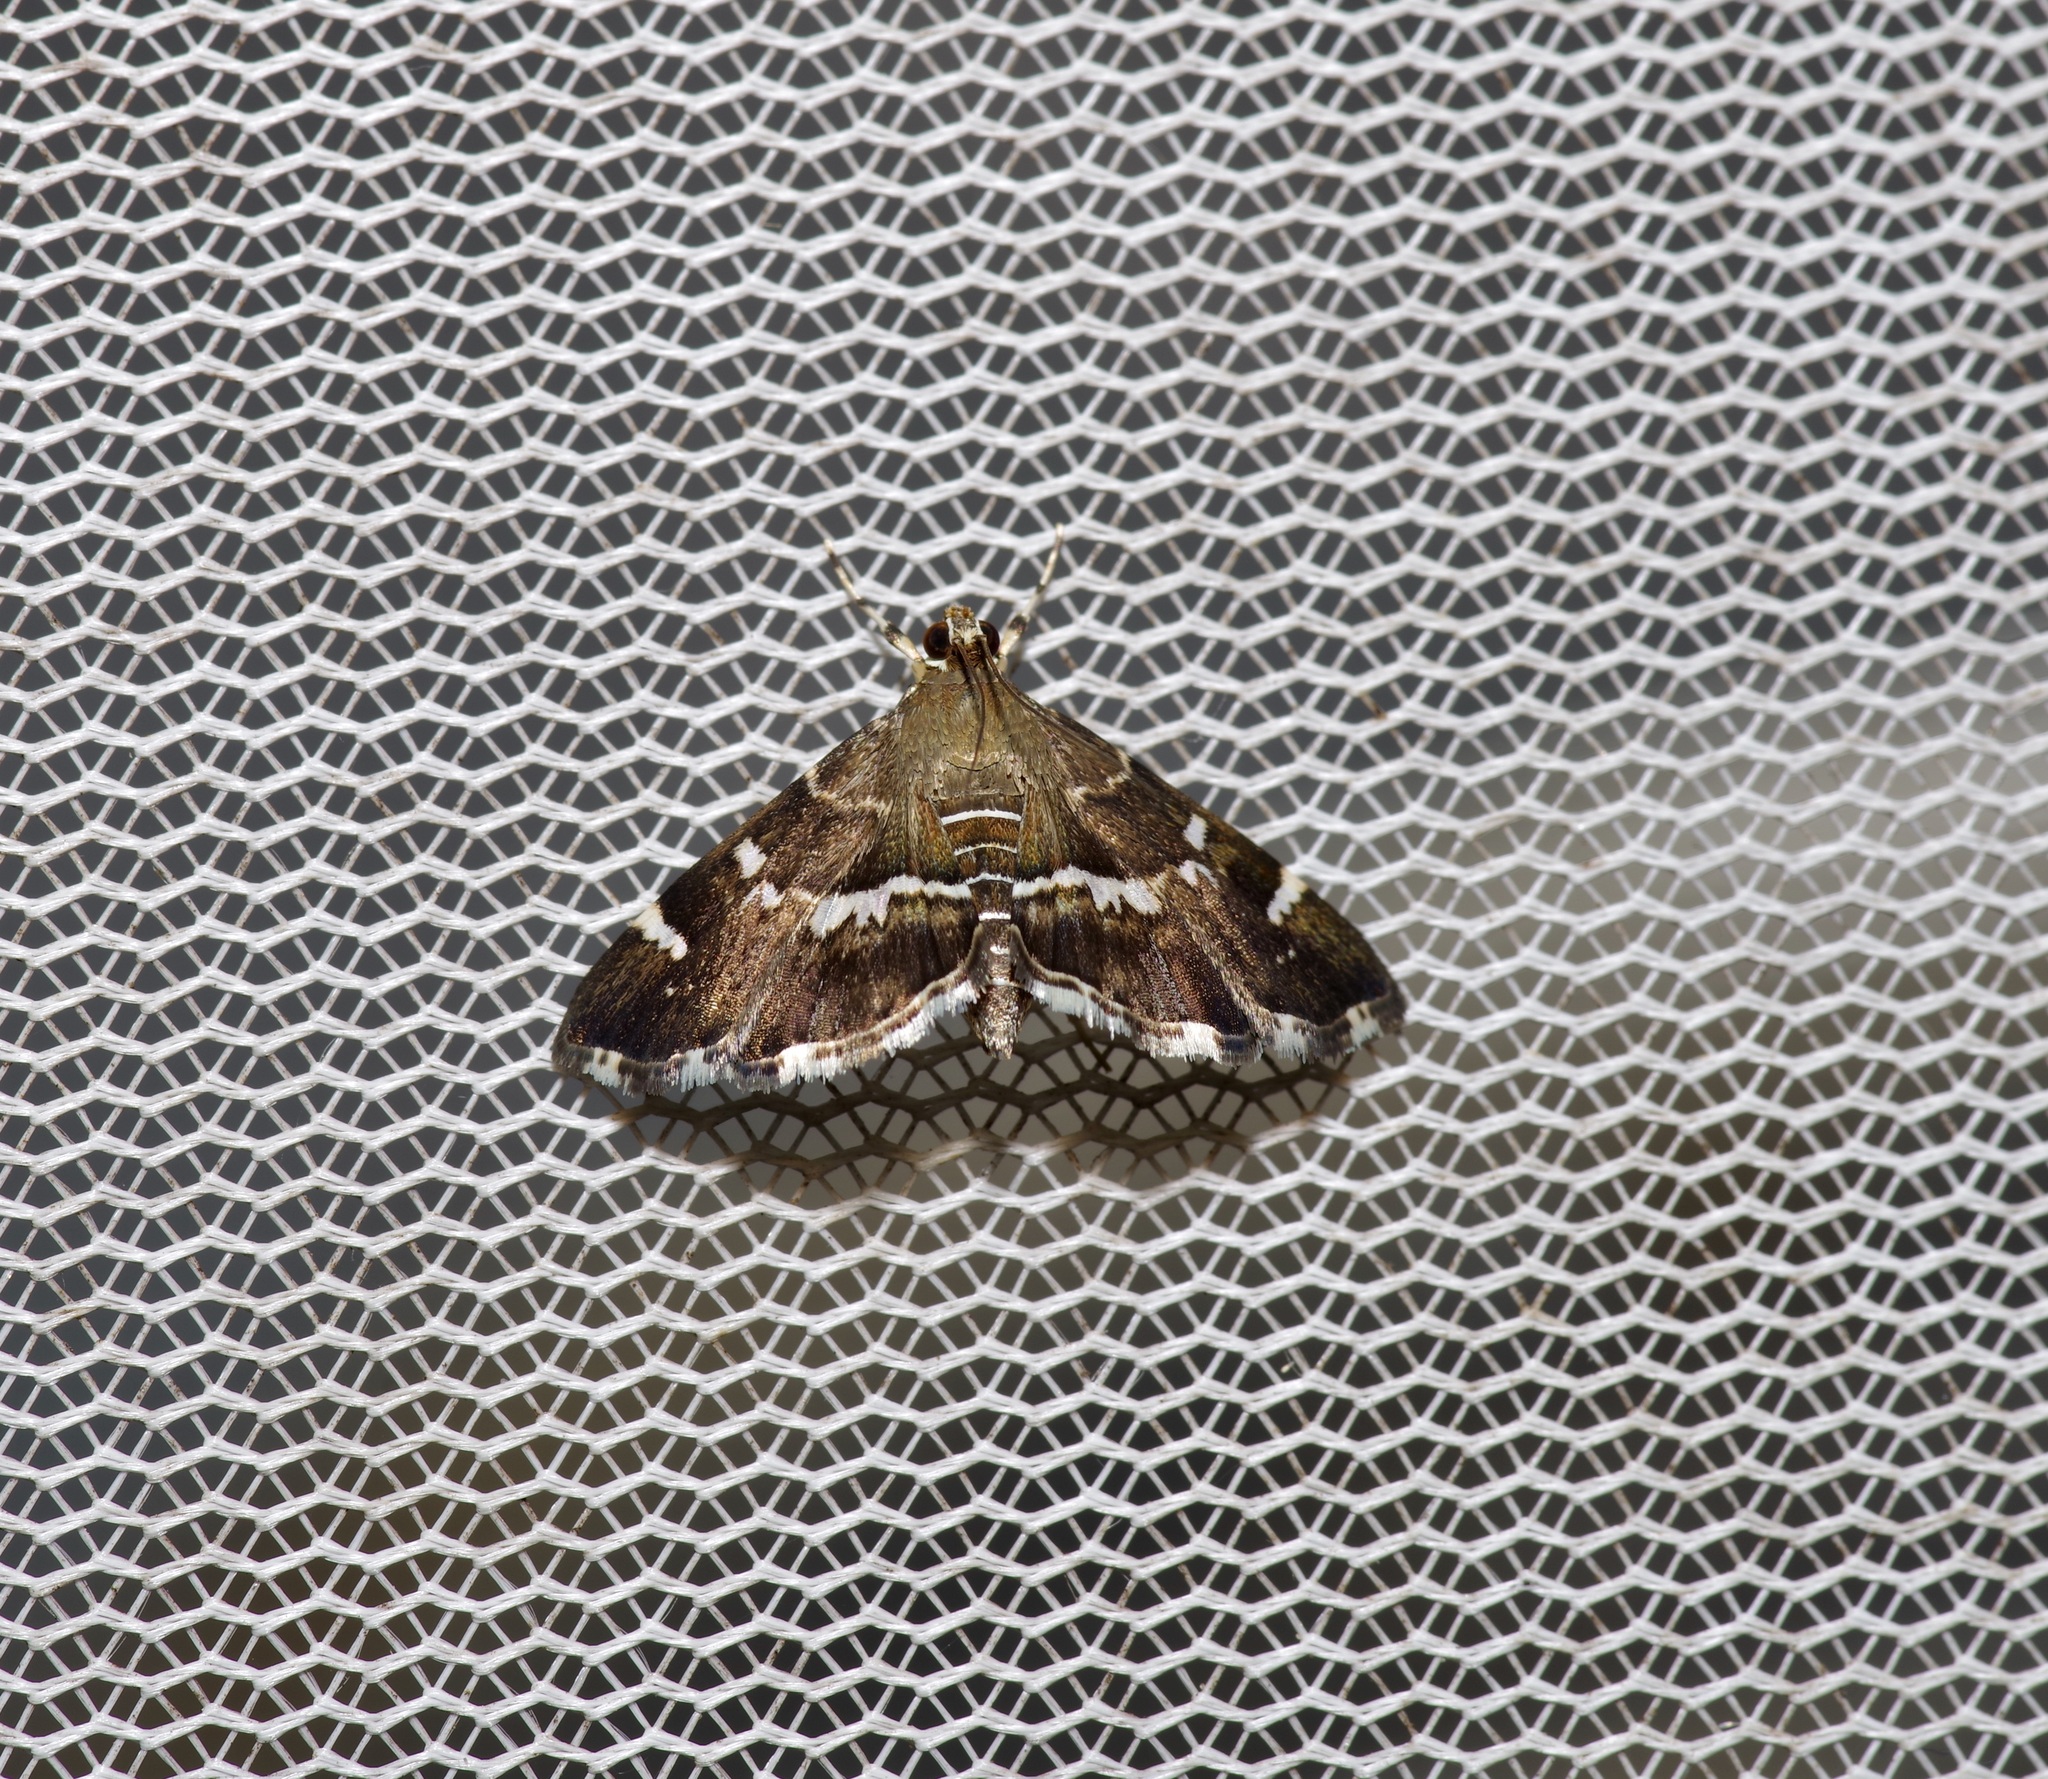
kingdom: Animalia
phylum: Arthropoda
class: Insecta
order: Lepidoptera
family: Crambidae
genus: Hymenia
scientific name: Hymenia perspectalis
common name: Spotted beet webworm
